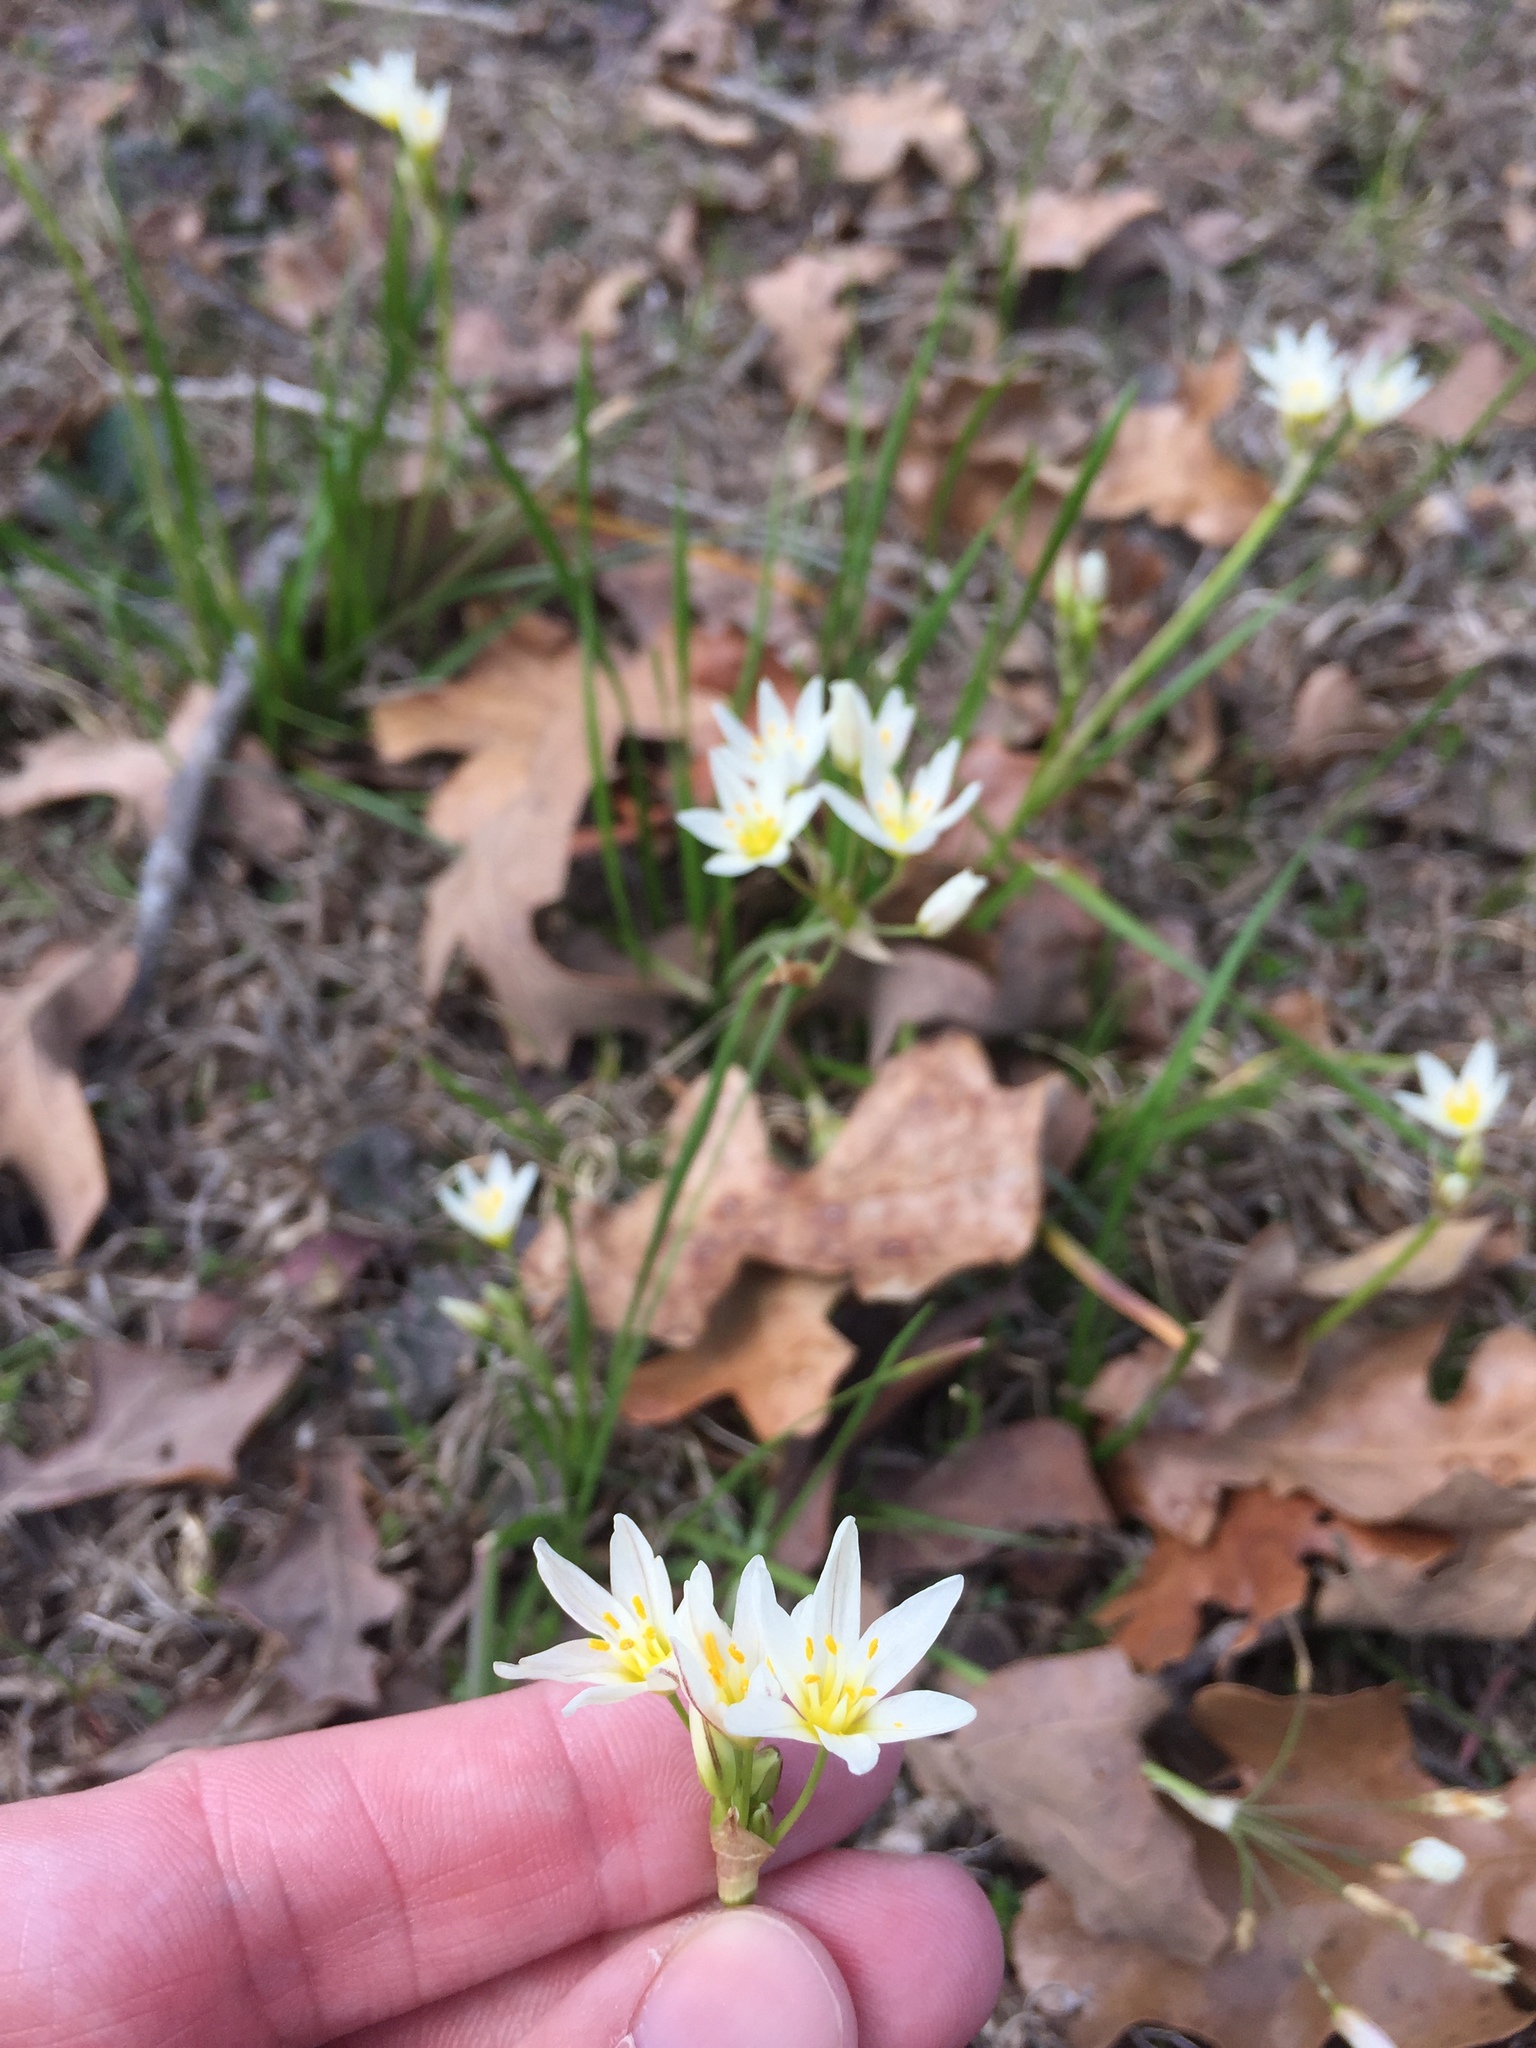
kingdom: Plantae
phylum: Tracheophyta
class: Liliopsida
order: Asparagales
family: Amaryllidaceae
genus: Nothoscordum
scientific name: Nothoscordum bivalve
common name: Crow-poison
